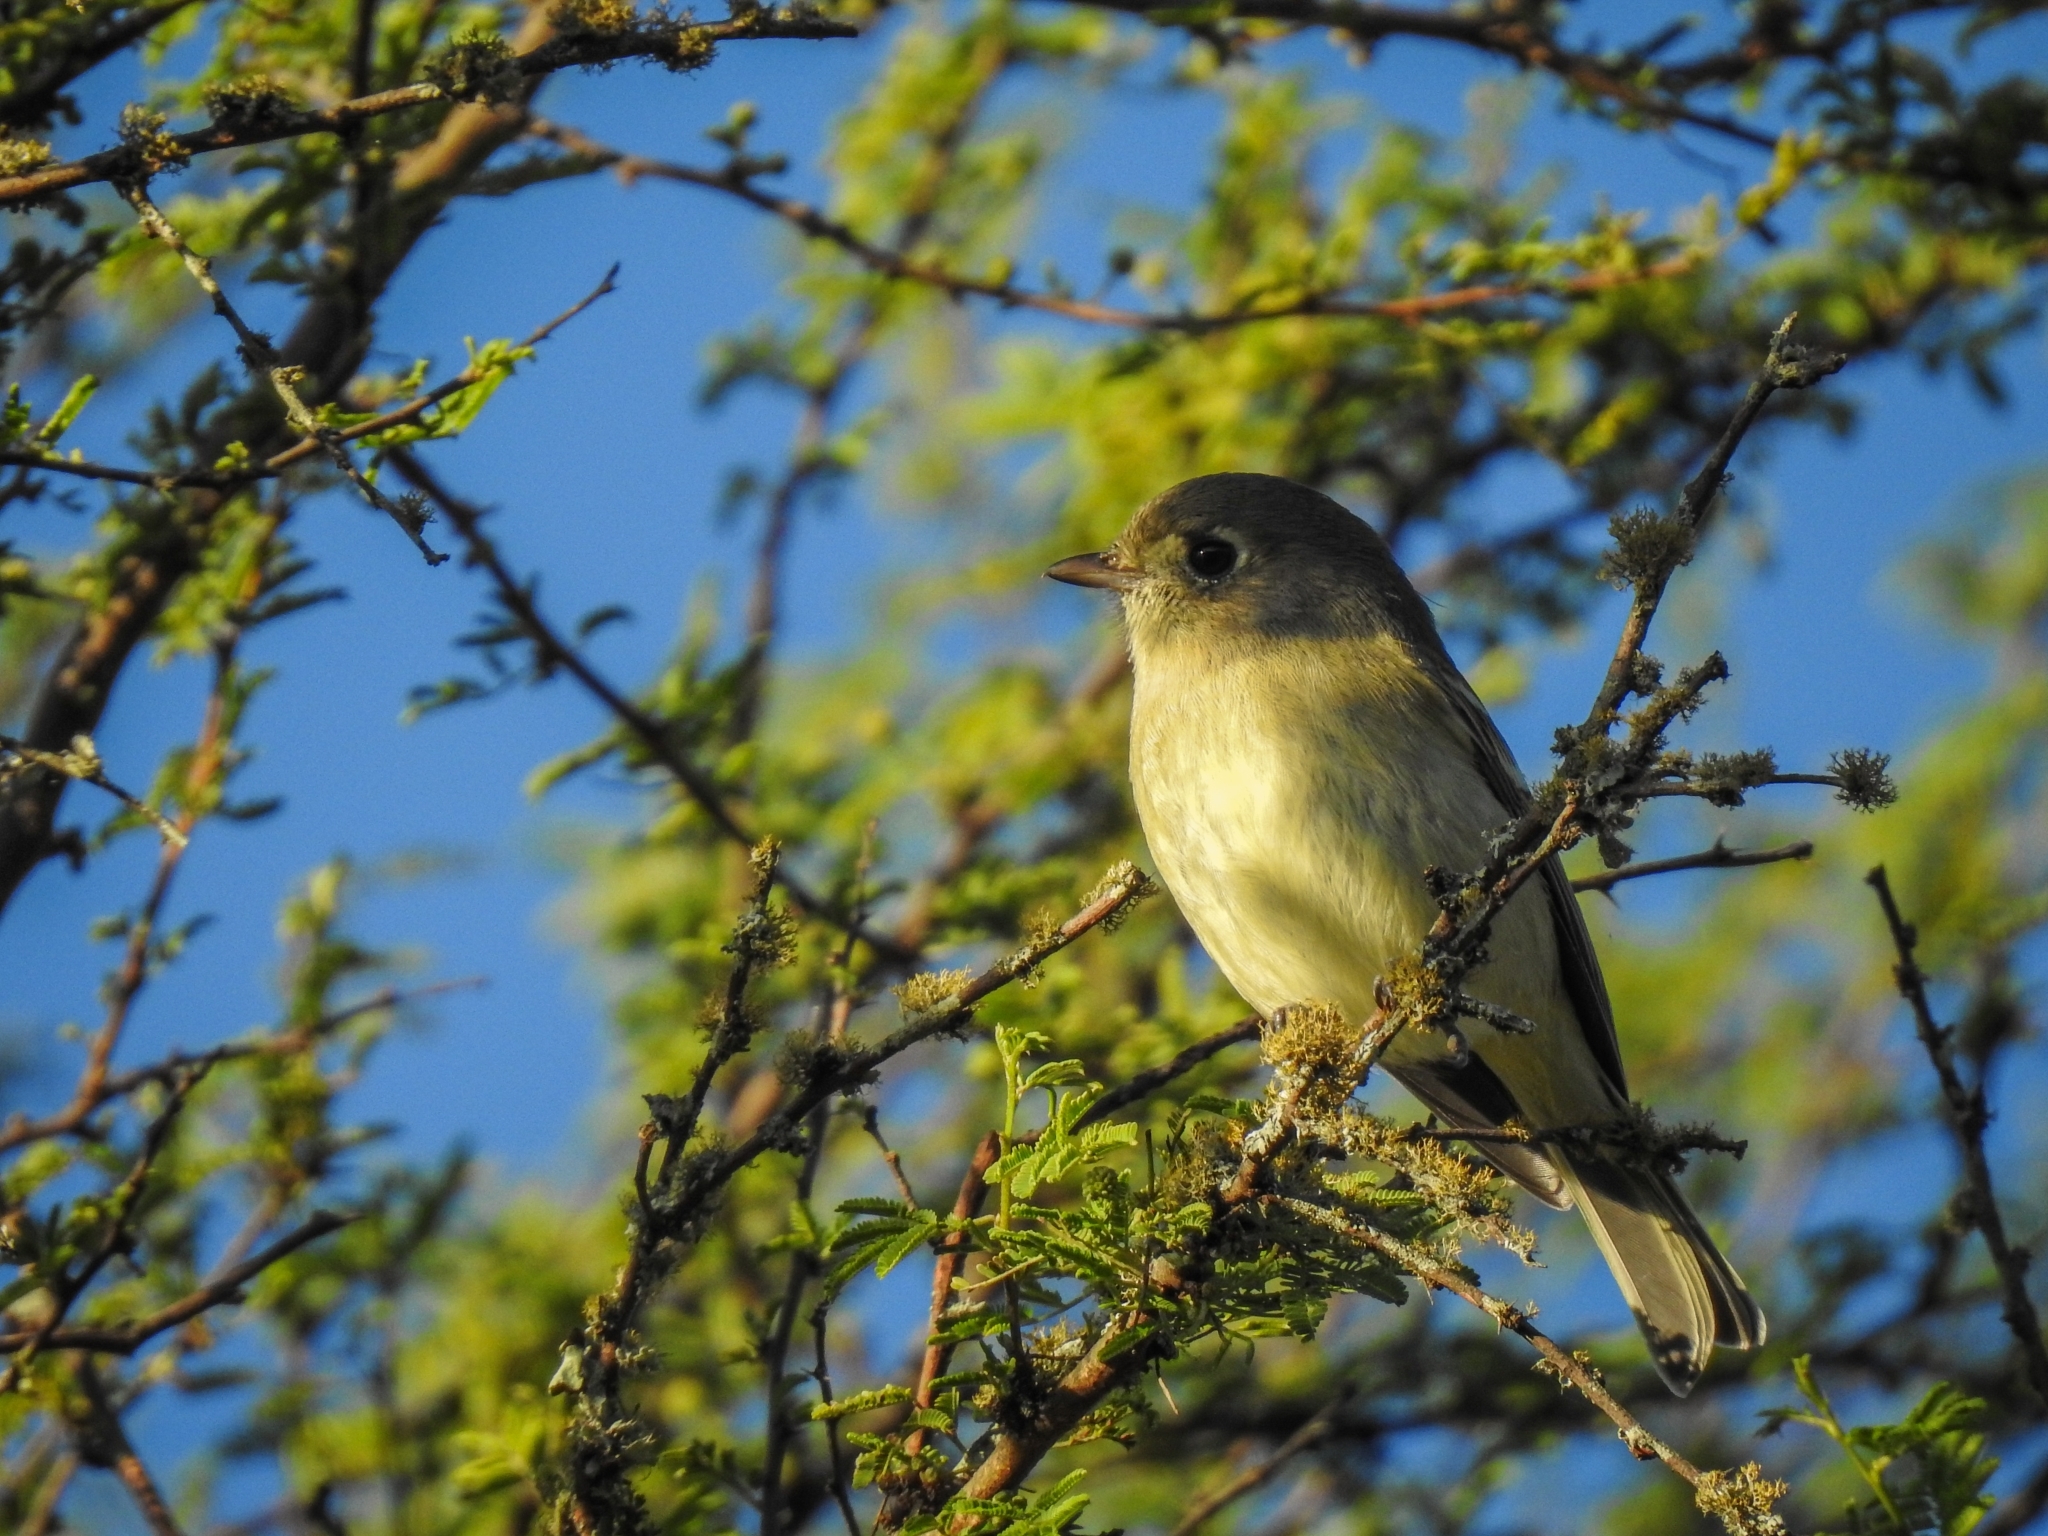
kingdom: Animalia
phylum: Chordata
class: Aves
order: Passeriformes
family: Vireonidae
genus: Vireo
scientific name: Vireo huttoni
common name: Hutton's vireo
